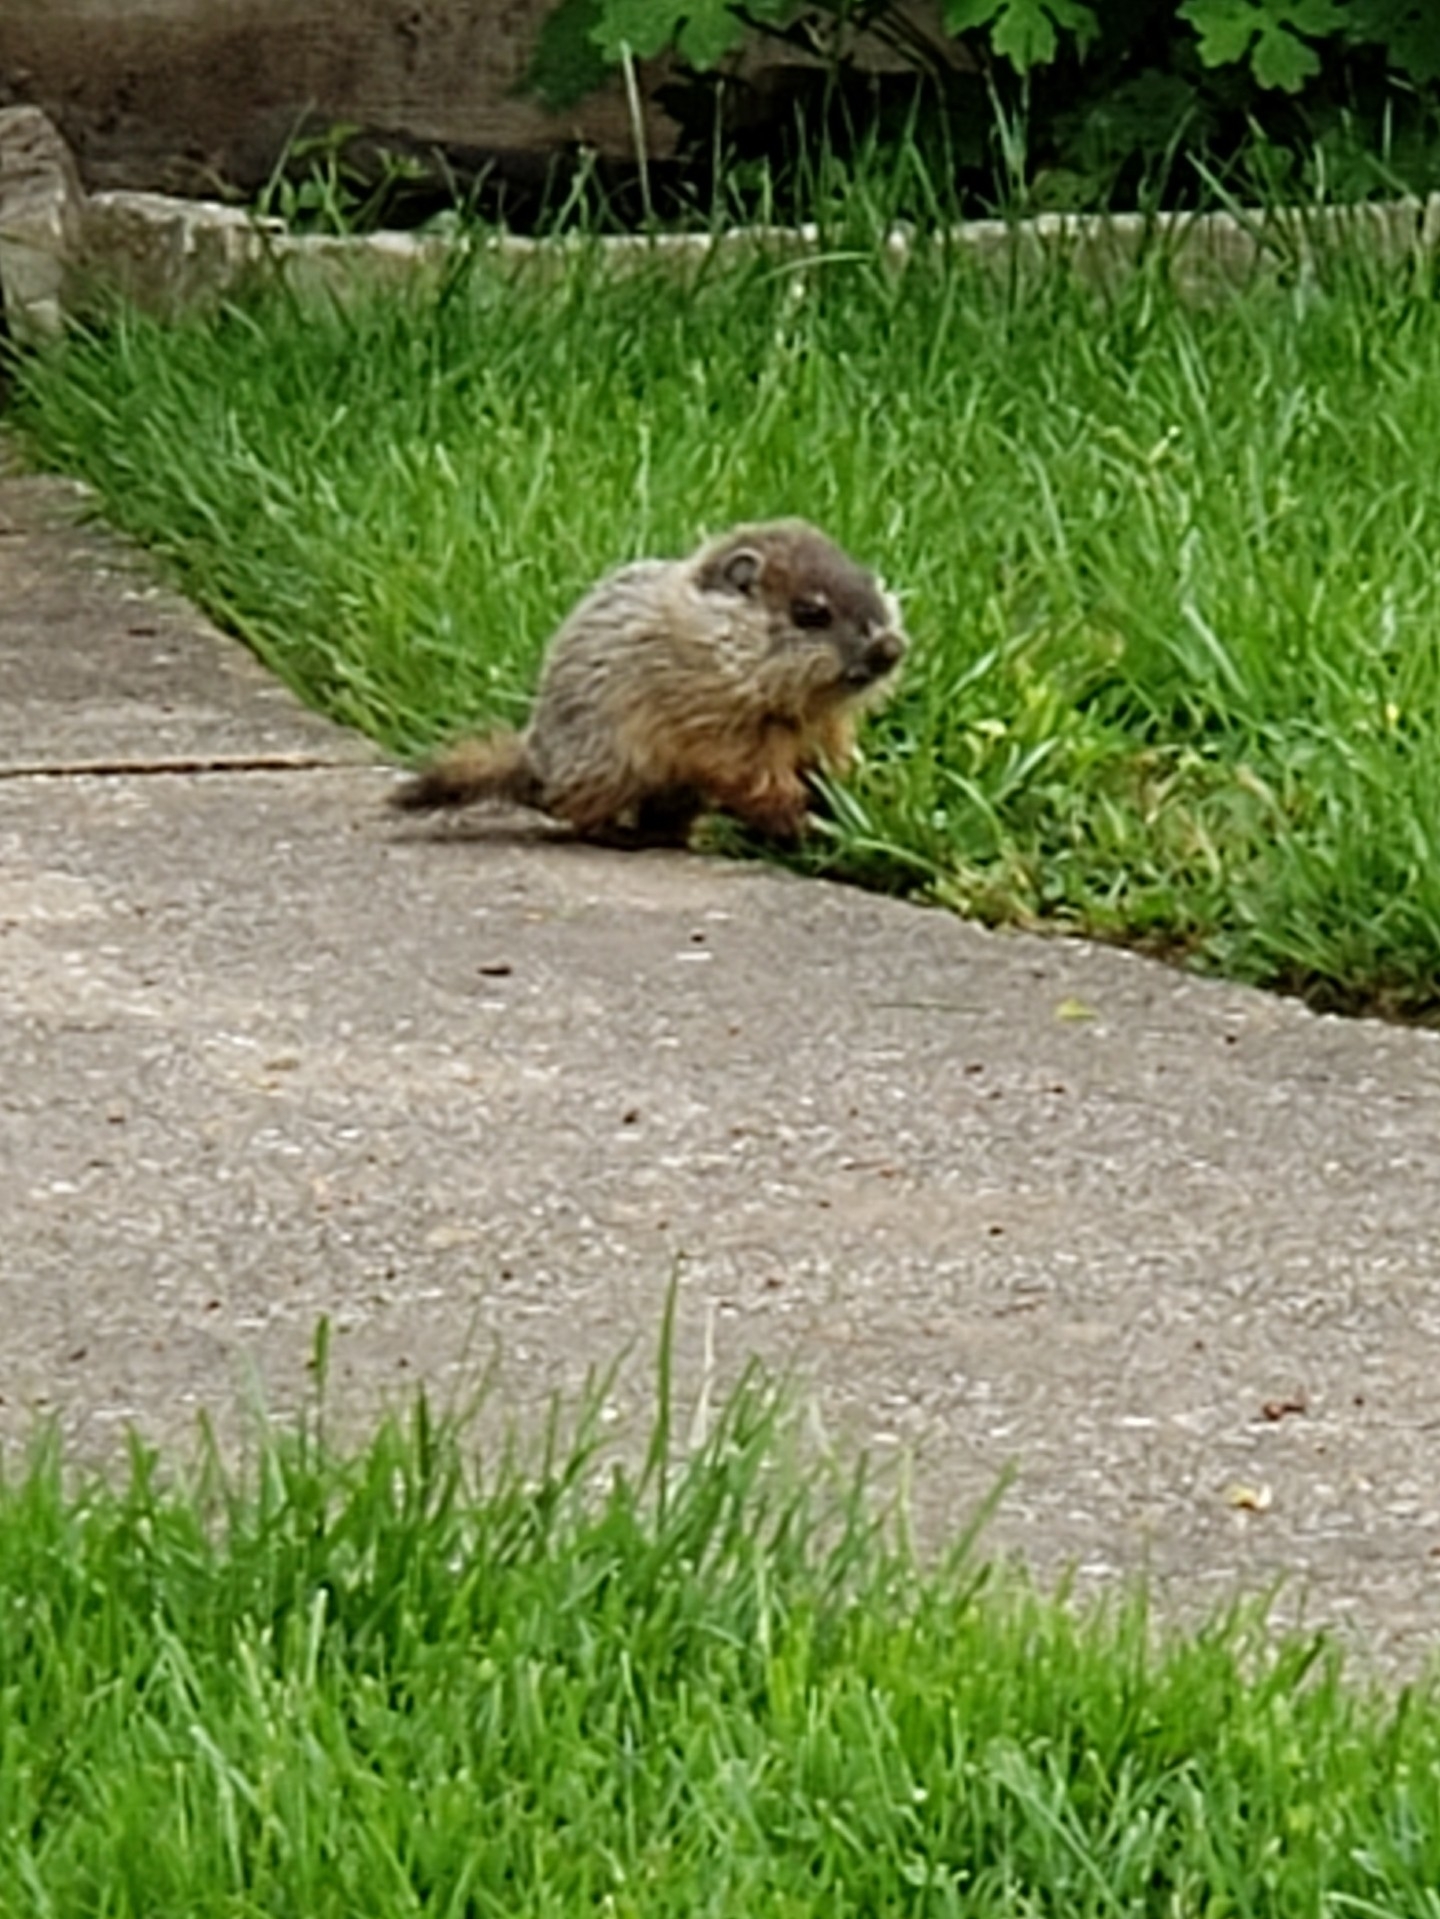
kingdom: Animalia
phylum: Chordata
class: Mammalia
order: Rodentia
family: Sciuridae
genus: Marmota
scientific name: Marmota monax
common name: Groundhog
